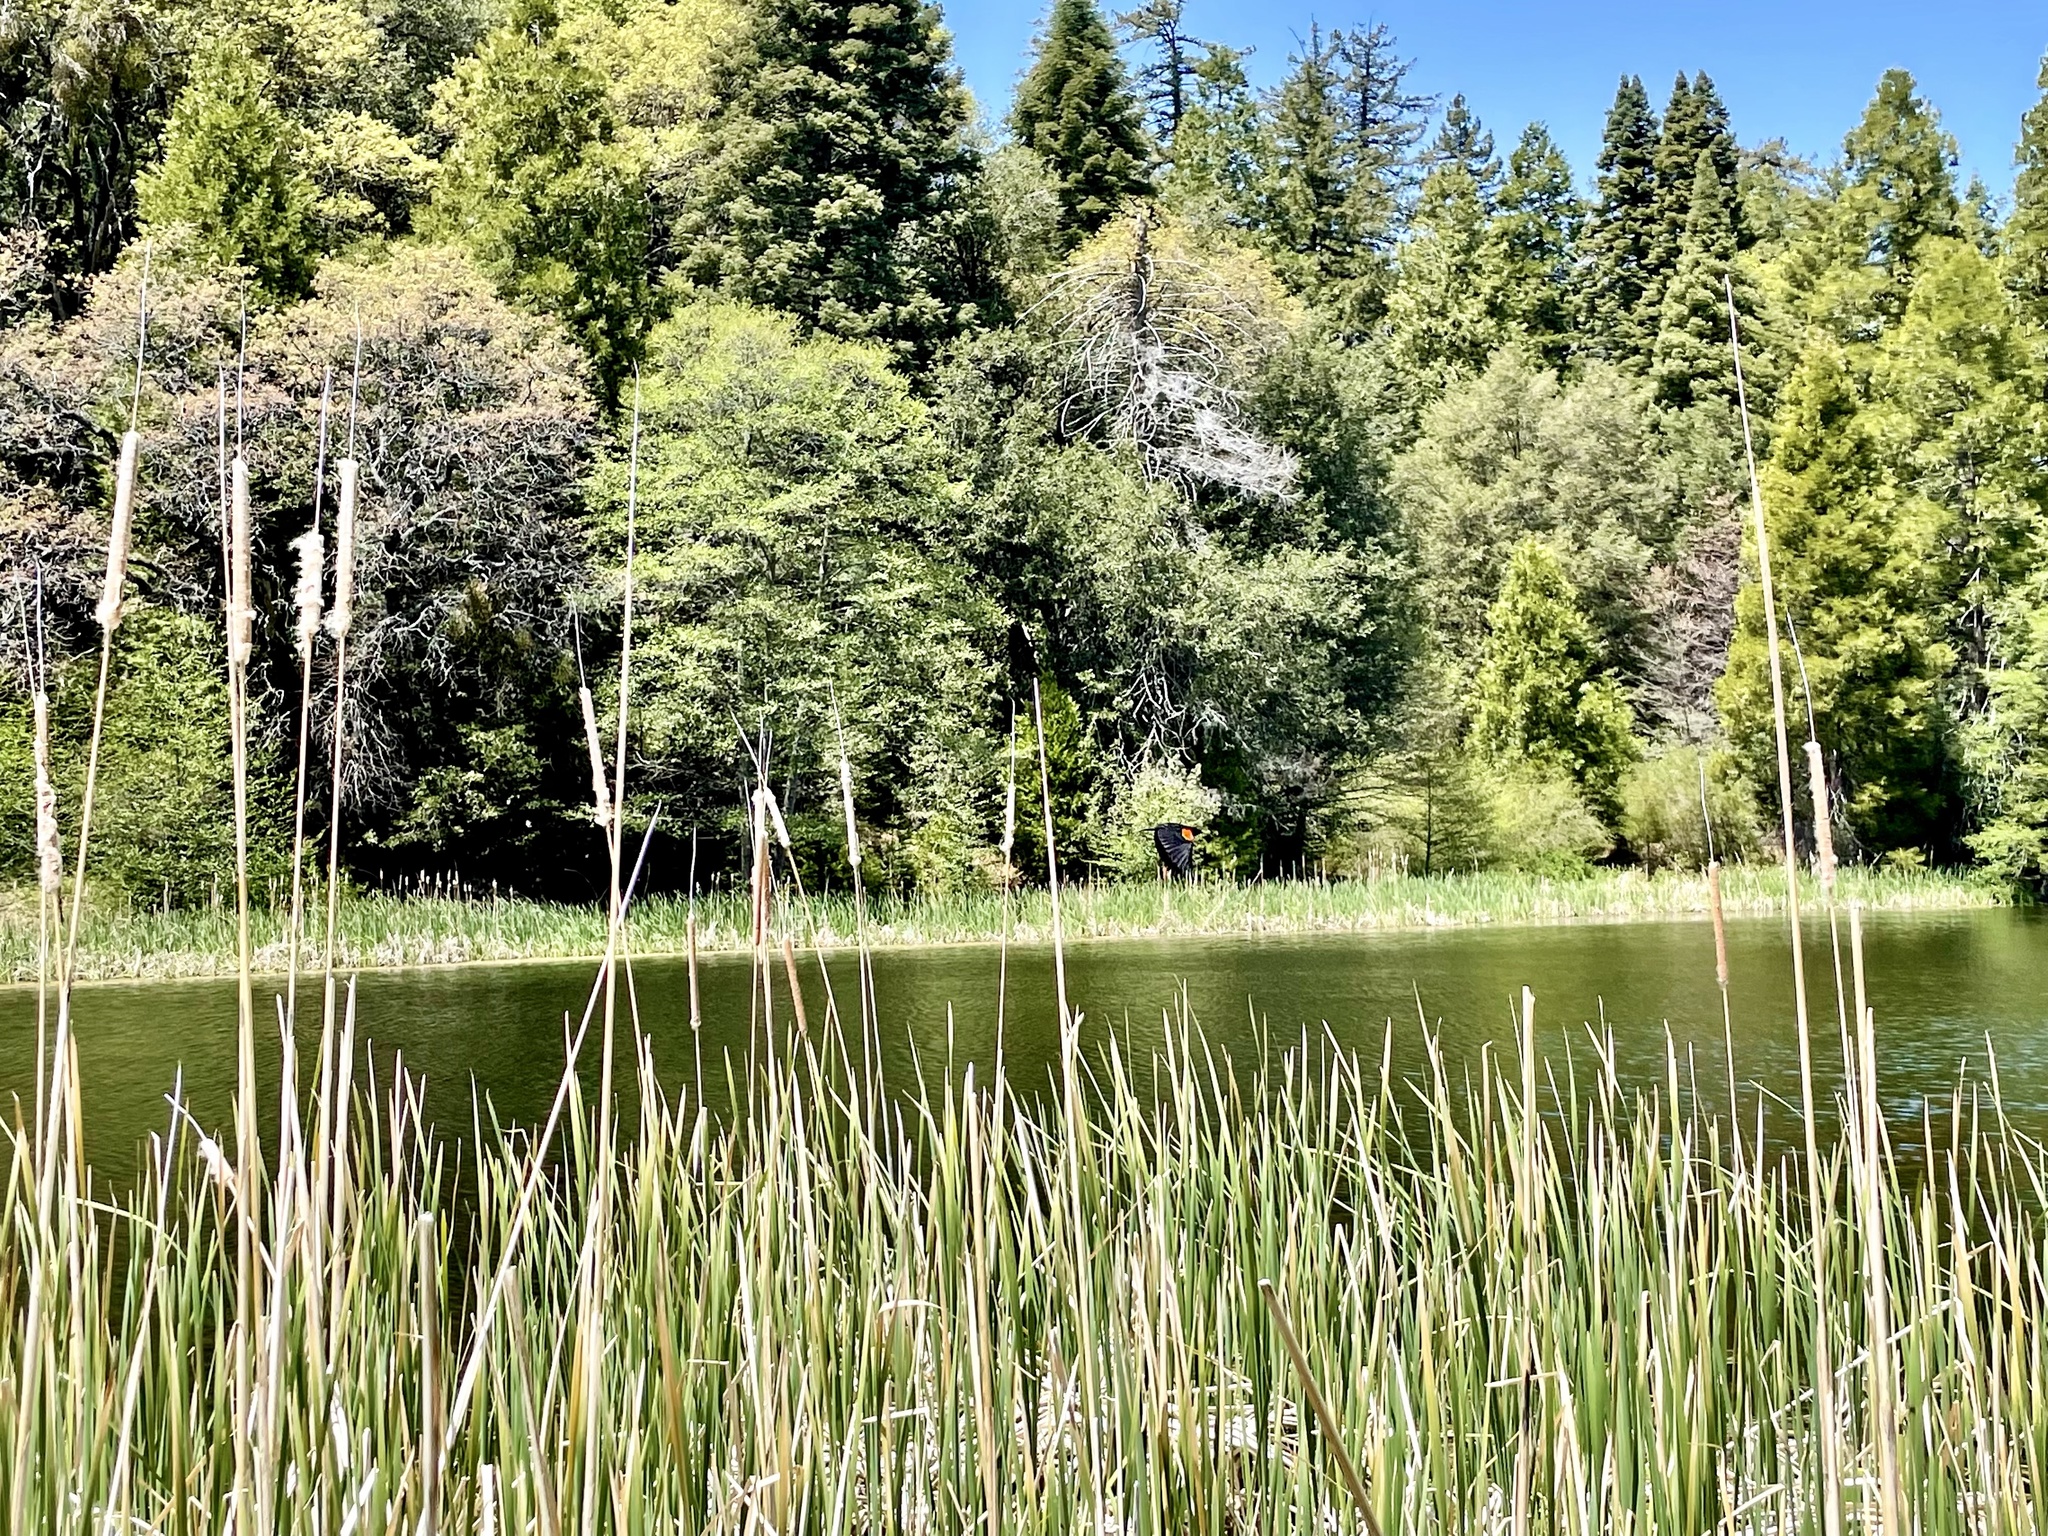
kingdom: Animalia
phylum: Chordata
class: Aves
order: Passeriformes
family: Icteridae
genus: Agelaius
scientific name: Agelaius phoeniceus
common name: Red-winged blackbird
